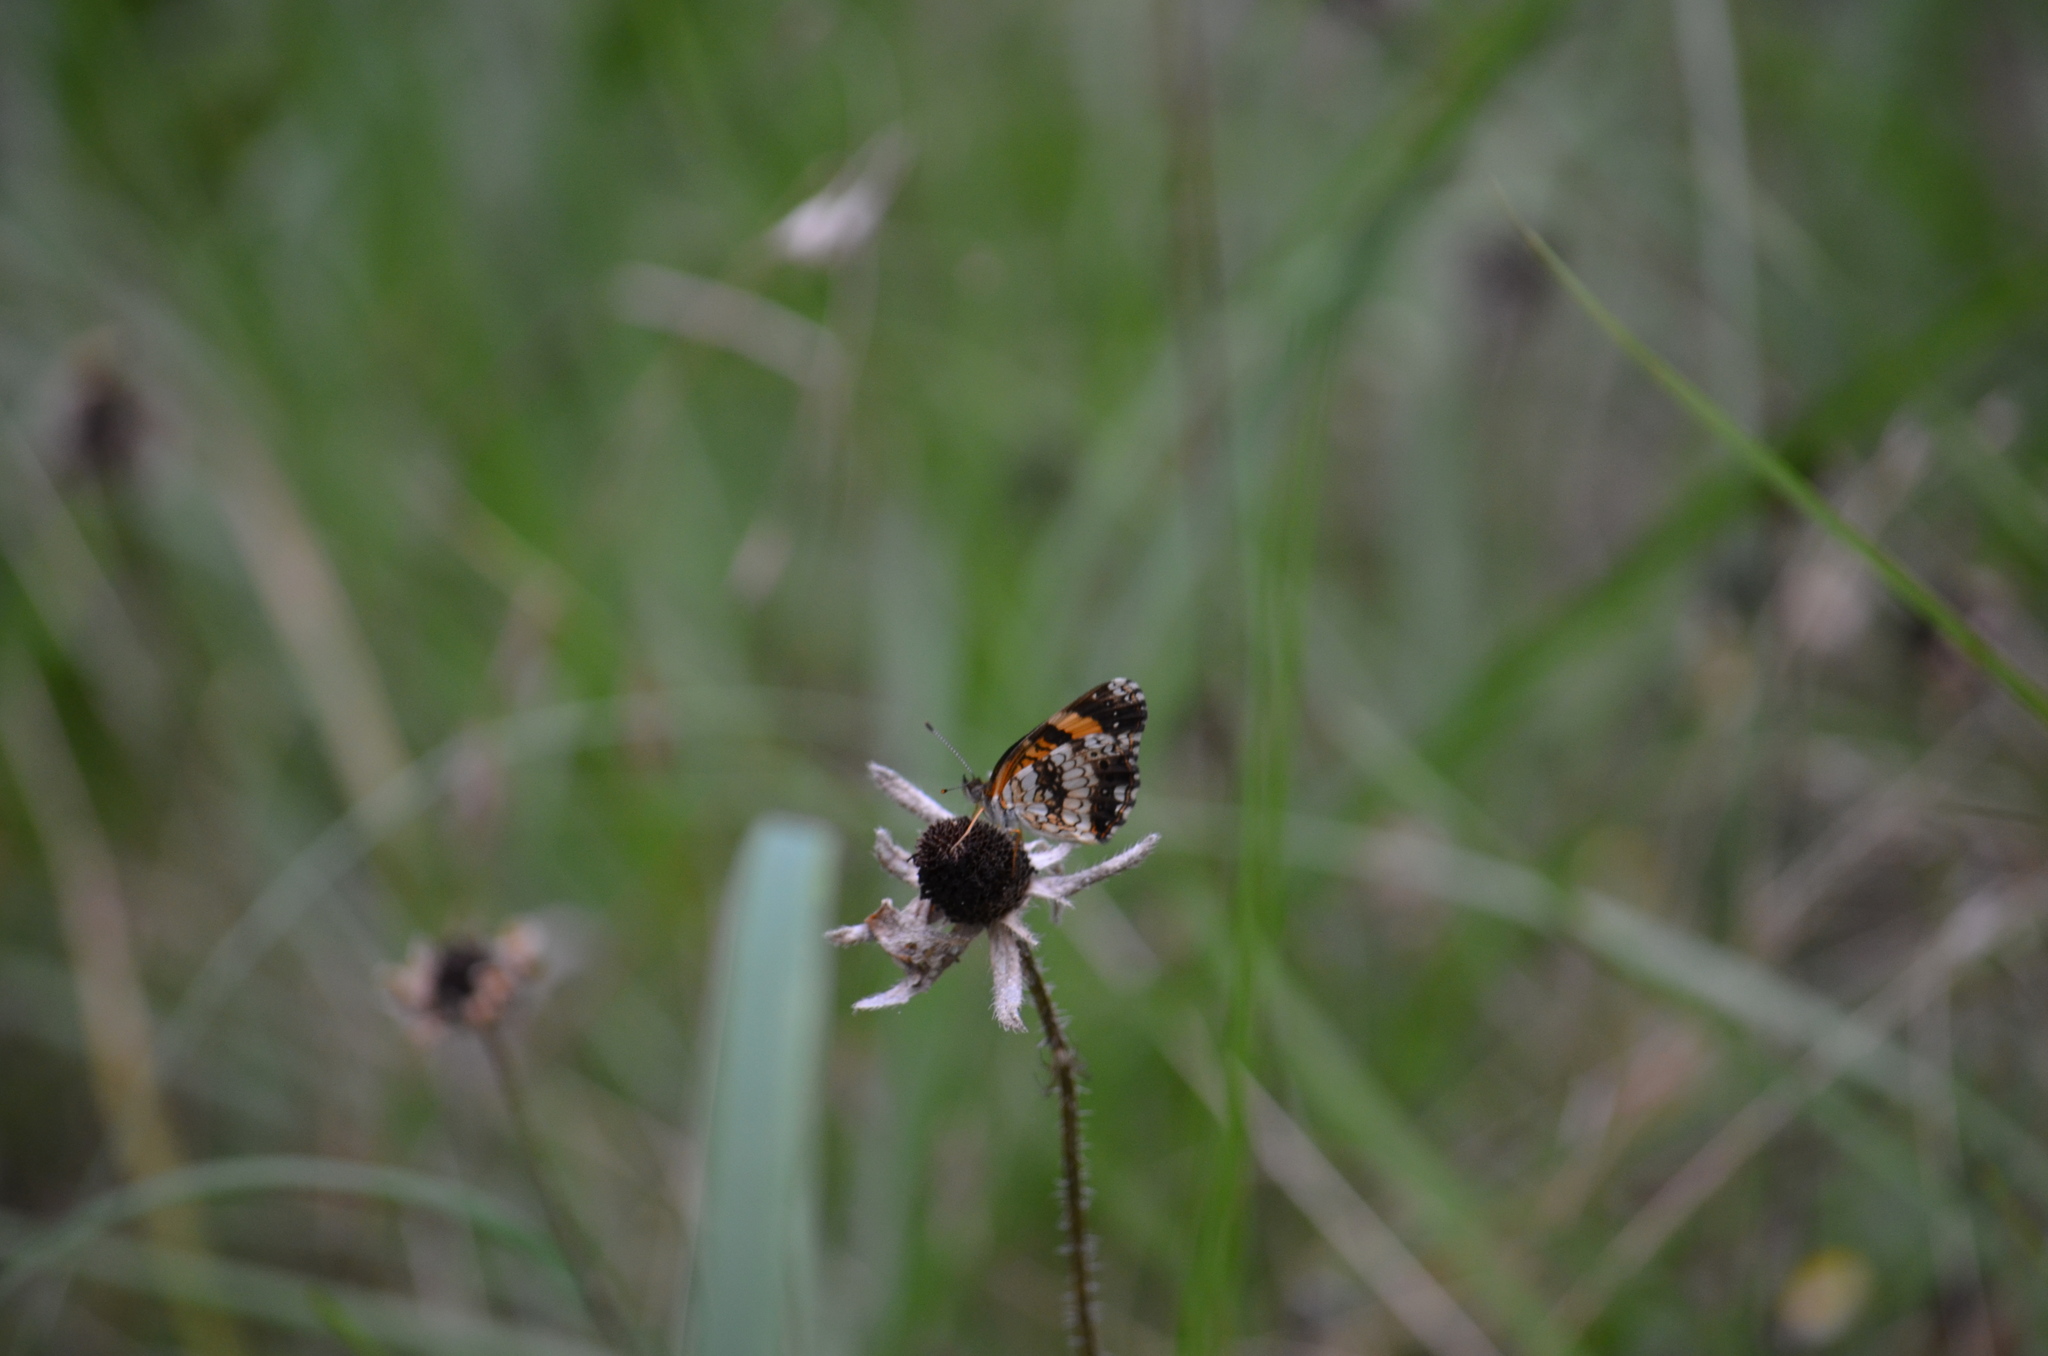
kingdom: Animalia
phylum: Arthropoda
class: Insecta
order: Lepidoptera
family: Nymphalidae
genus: Phyciodes
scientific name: Phyciodes phaon
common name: Phaon crescent
